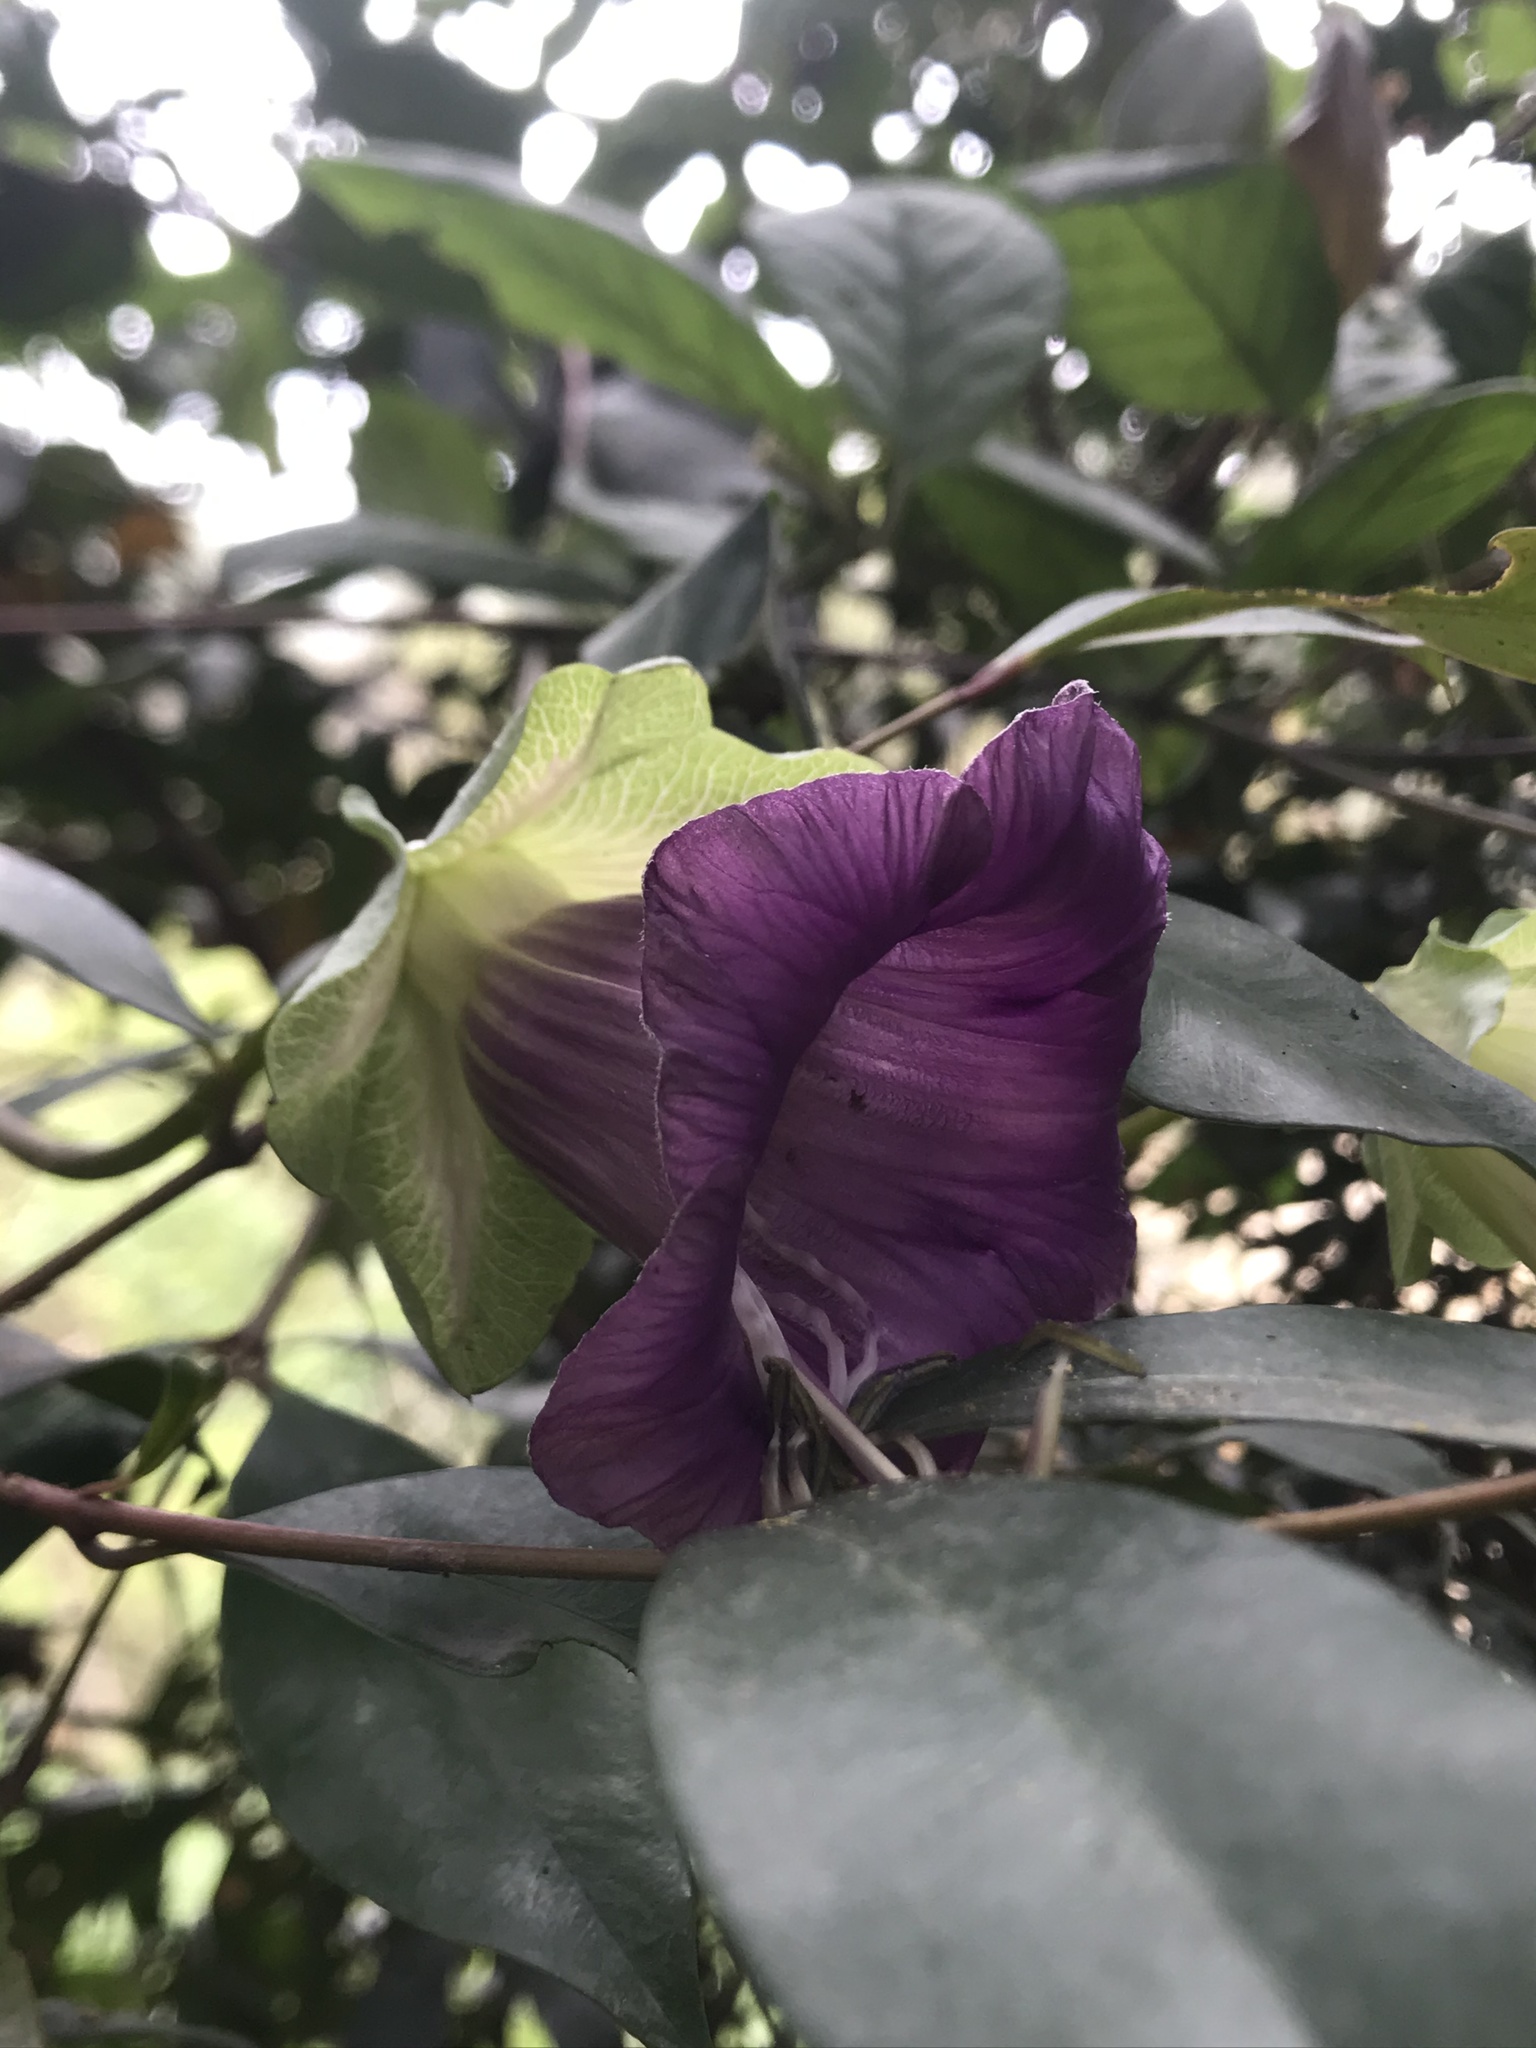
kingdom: Plantae
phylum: Tracheophyta
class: Magnoliopsida
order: Ericales
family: Polemoniaceae
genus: Cobaea
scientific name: Cobaea scandens
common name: Cup-and-saucer-vine
